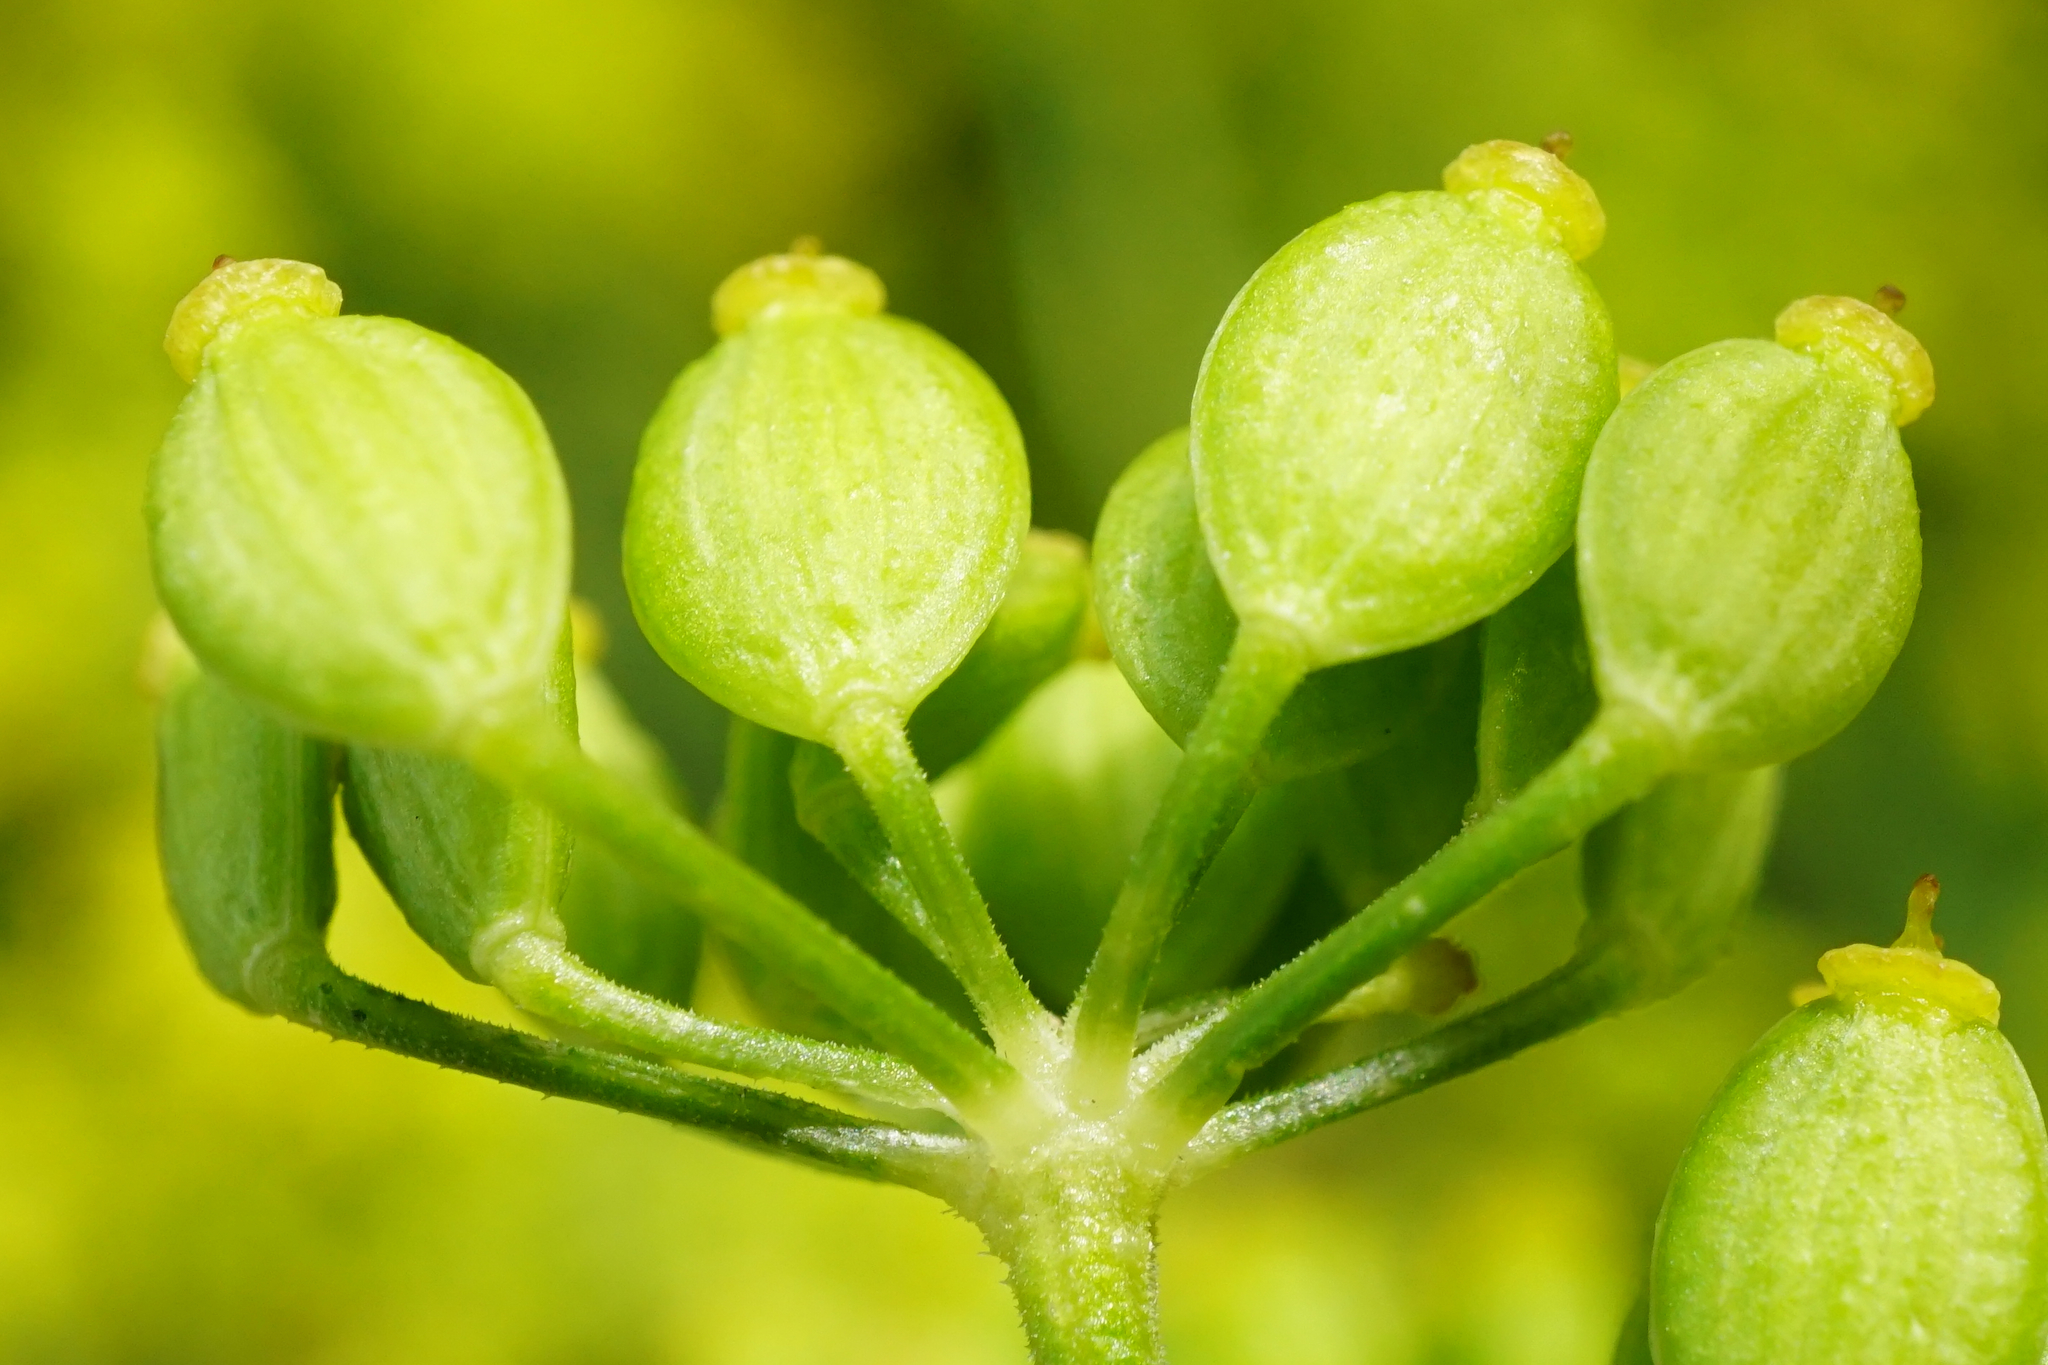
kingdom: Plantae
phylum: Tracheophyta
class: Magnoliopsida
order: Apiales
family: Apiaceae
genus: Pastinaca
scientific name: Pastinaca sativa
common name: Wild parsnip
